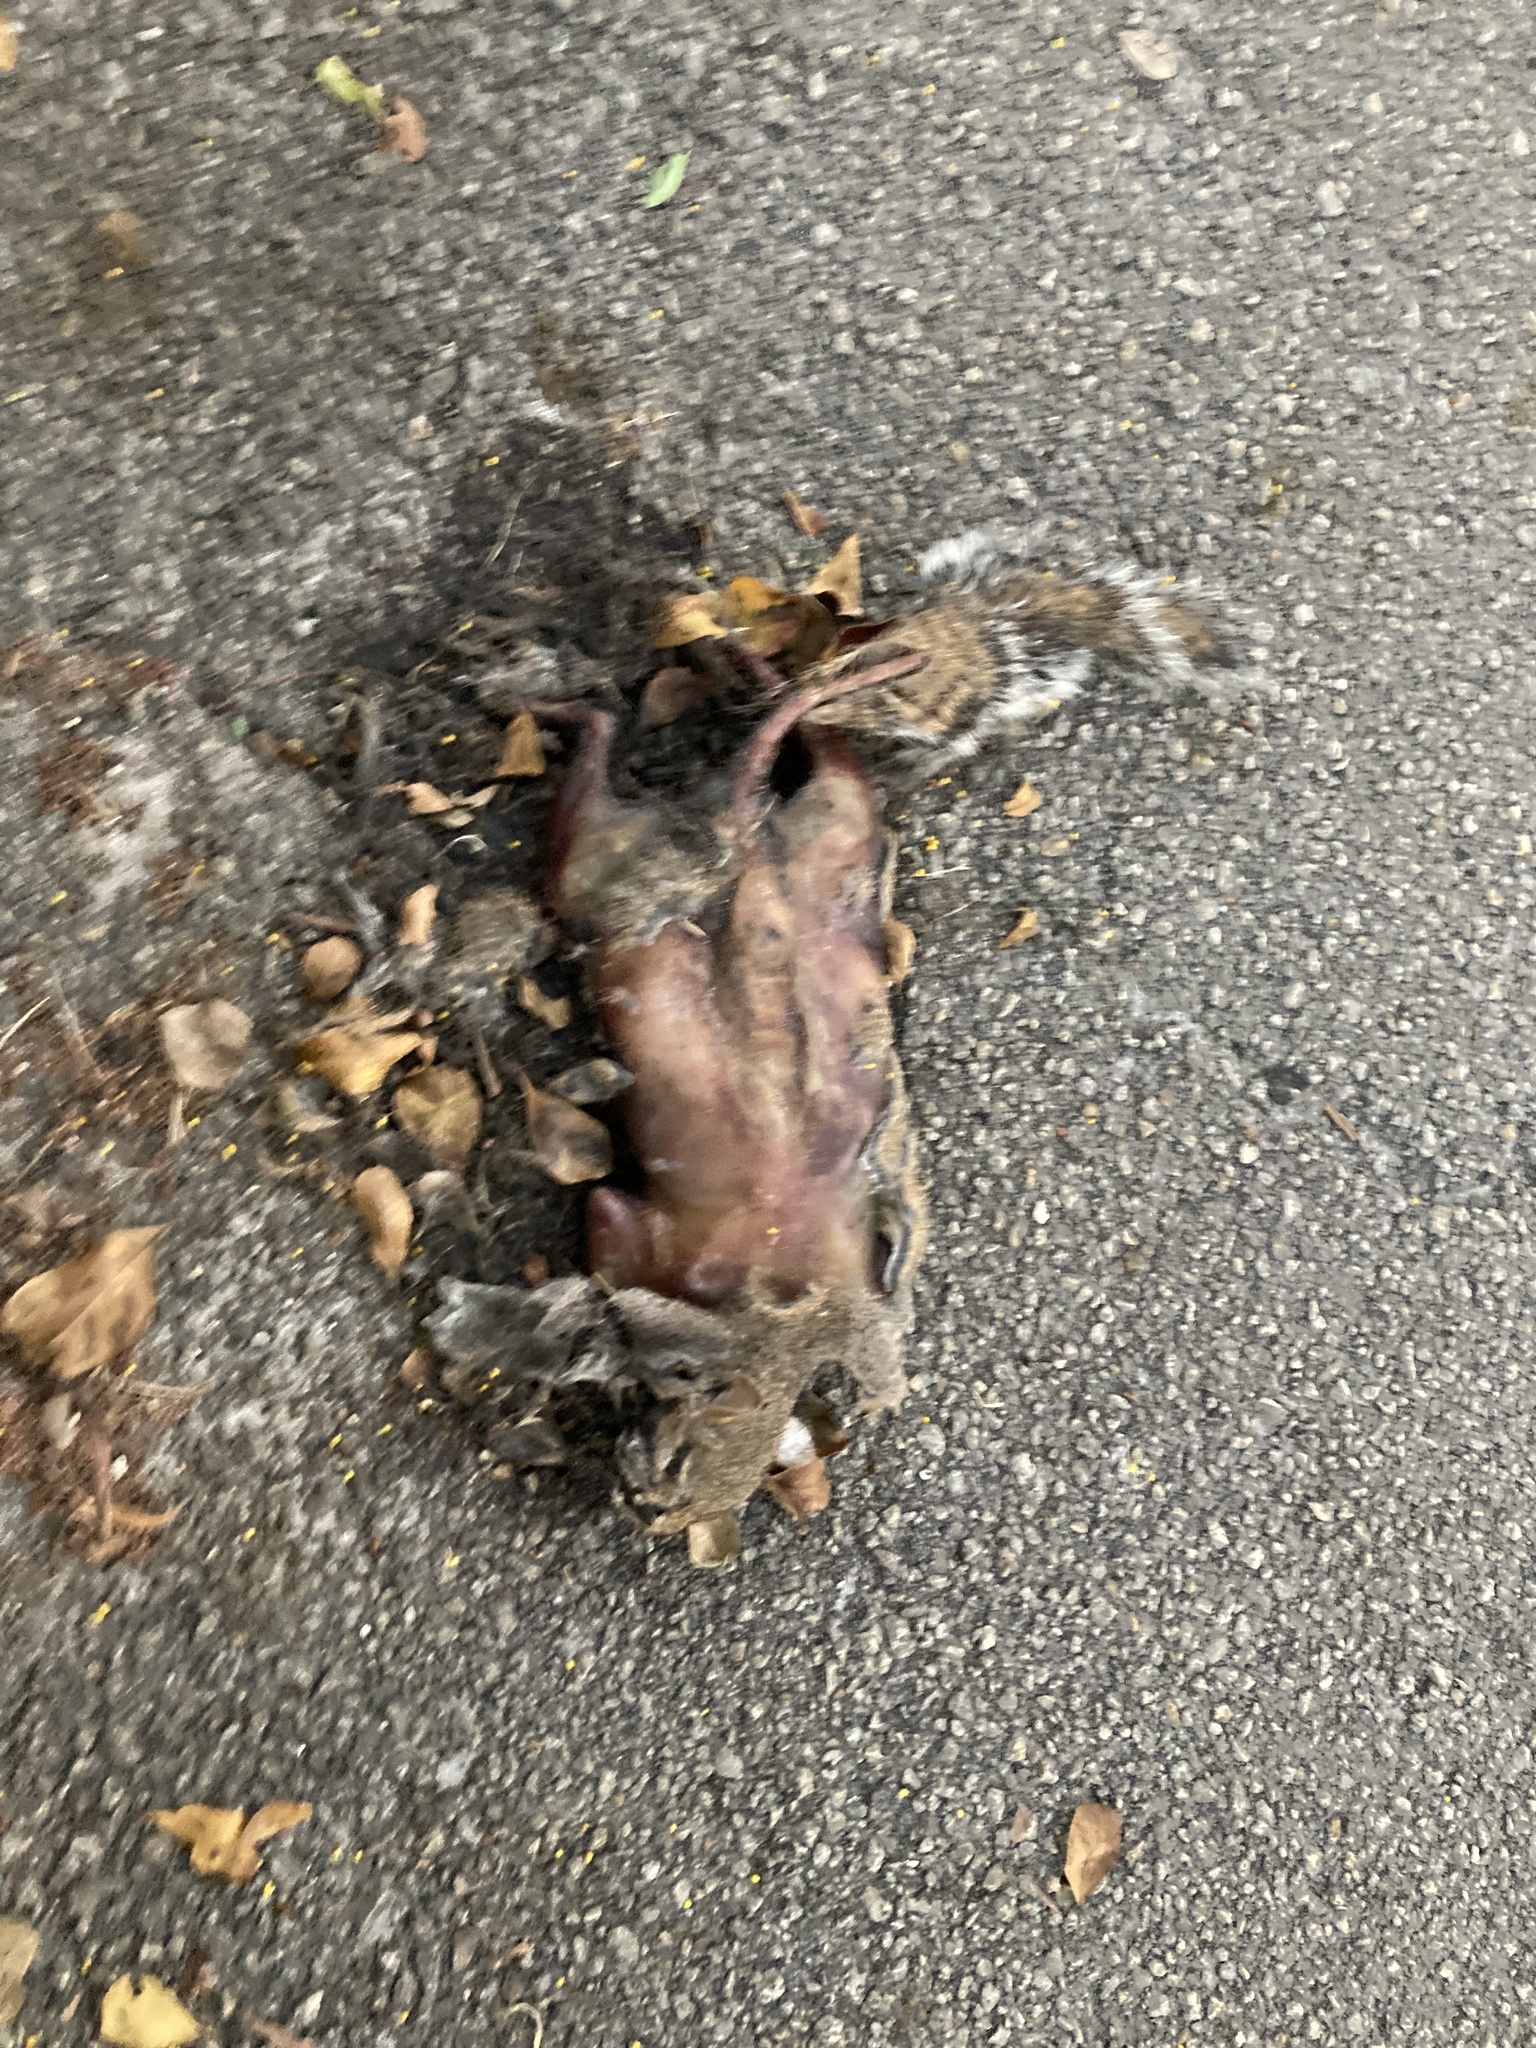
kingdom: Animalia
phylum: Chordata
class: Mammalia
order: Rodentia
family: Sciuridae
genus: Sciurus
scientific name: Sciurus carolinensis
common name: Eastern gray squirrel
